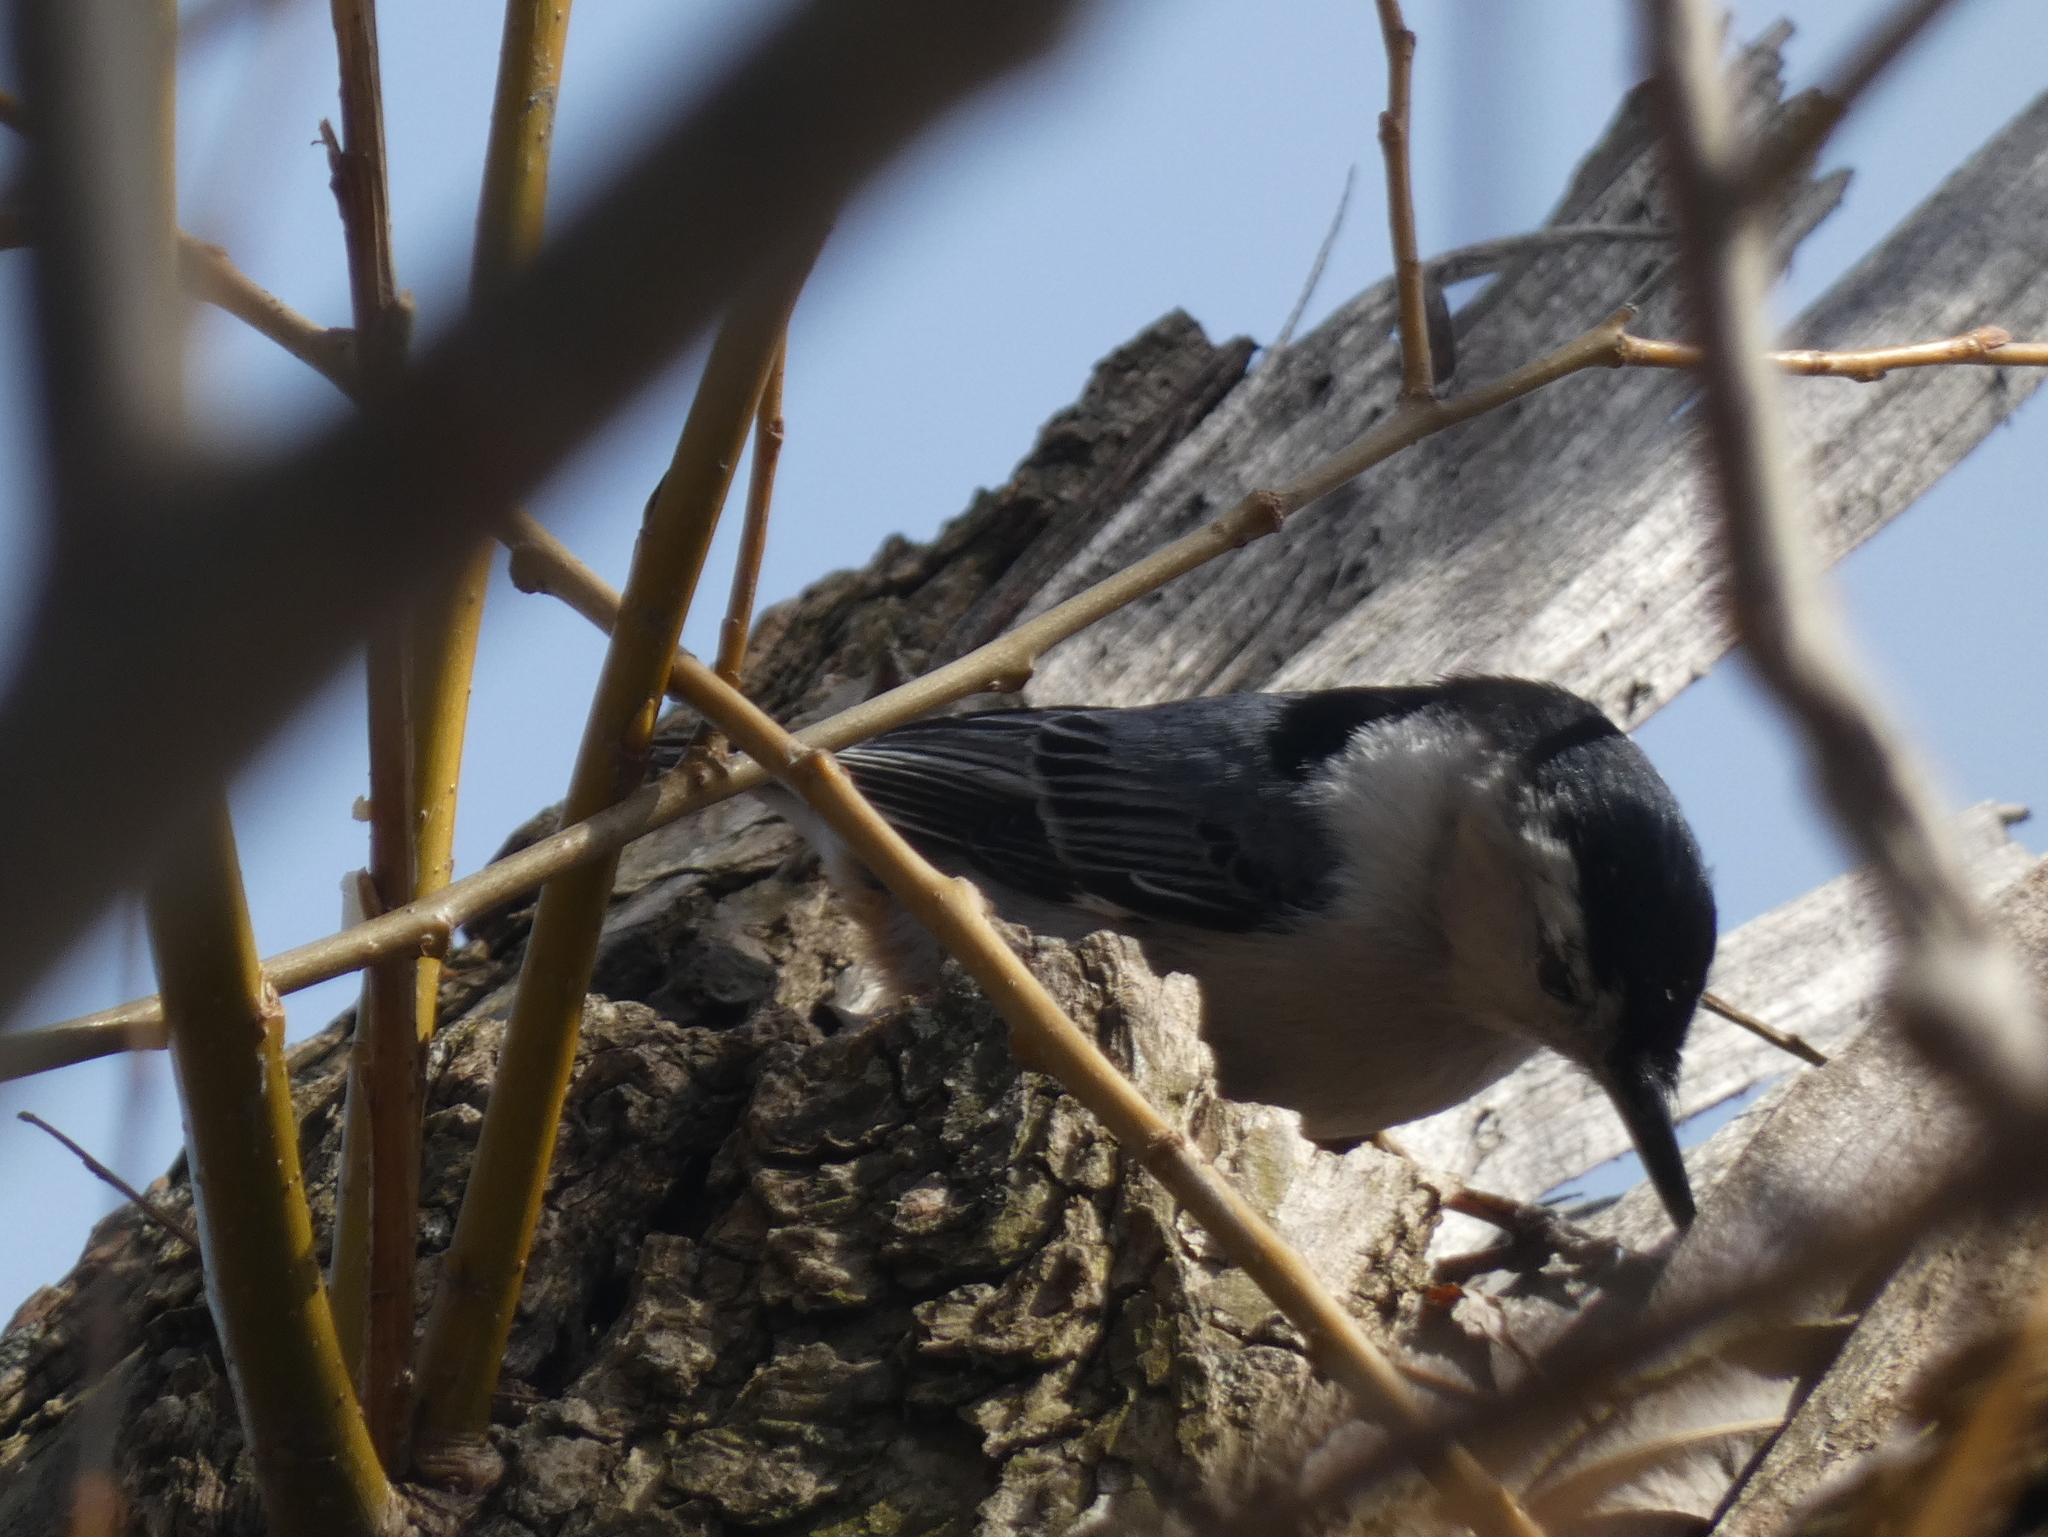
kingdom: Animalia
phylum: Chordata
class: Aves
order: Passeriformes
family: Sittidae
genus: Sitta
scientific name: Sitta carolinensis
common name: White-breasted nuthatch
